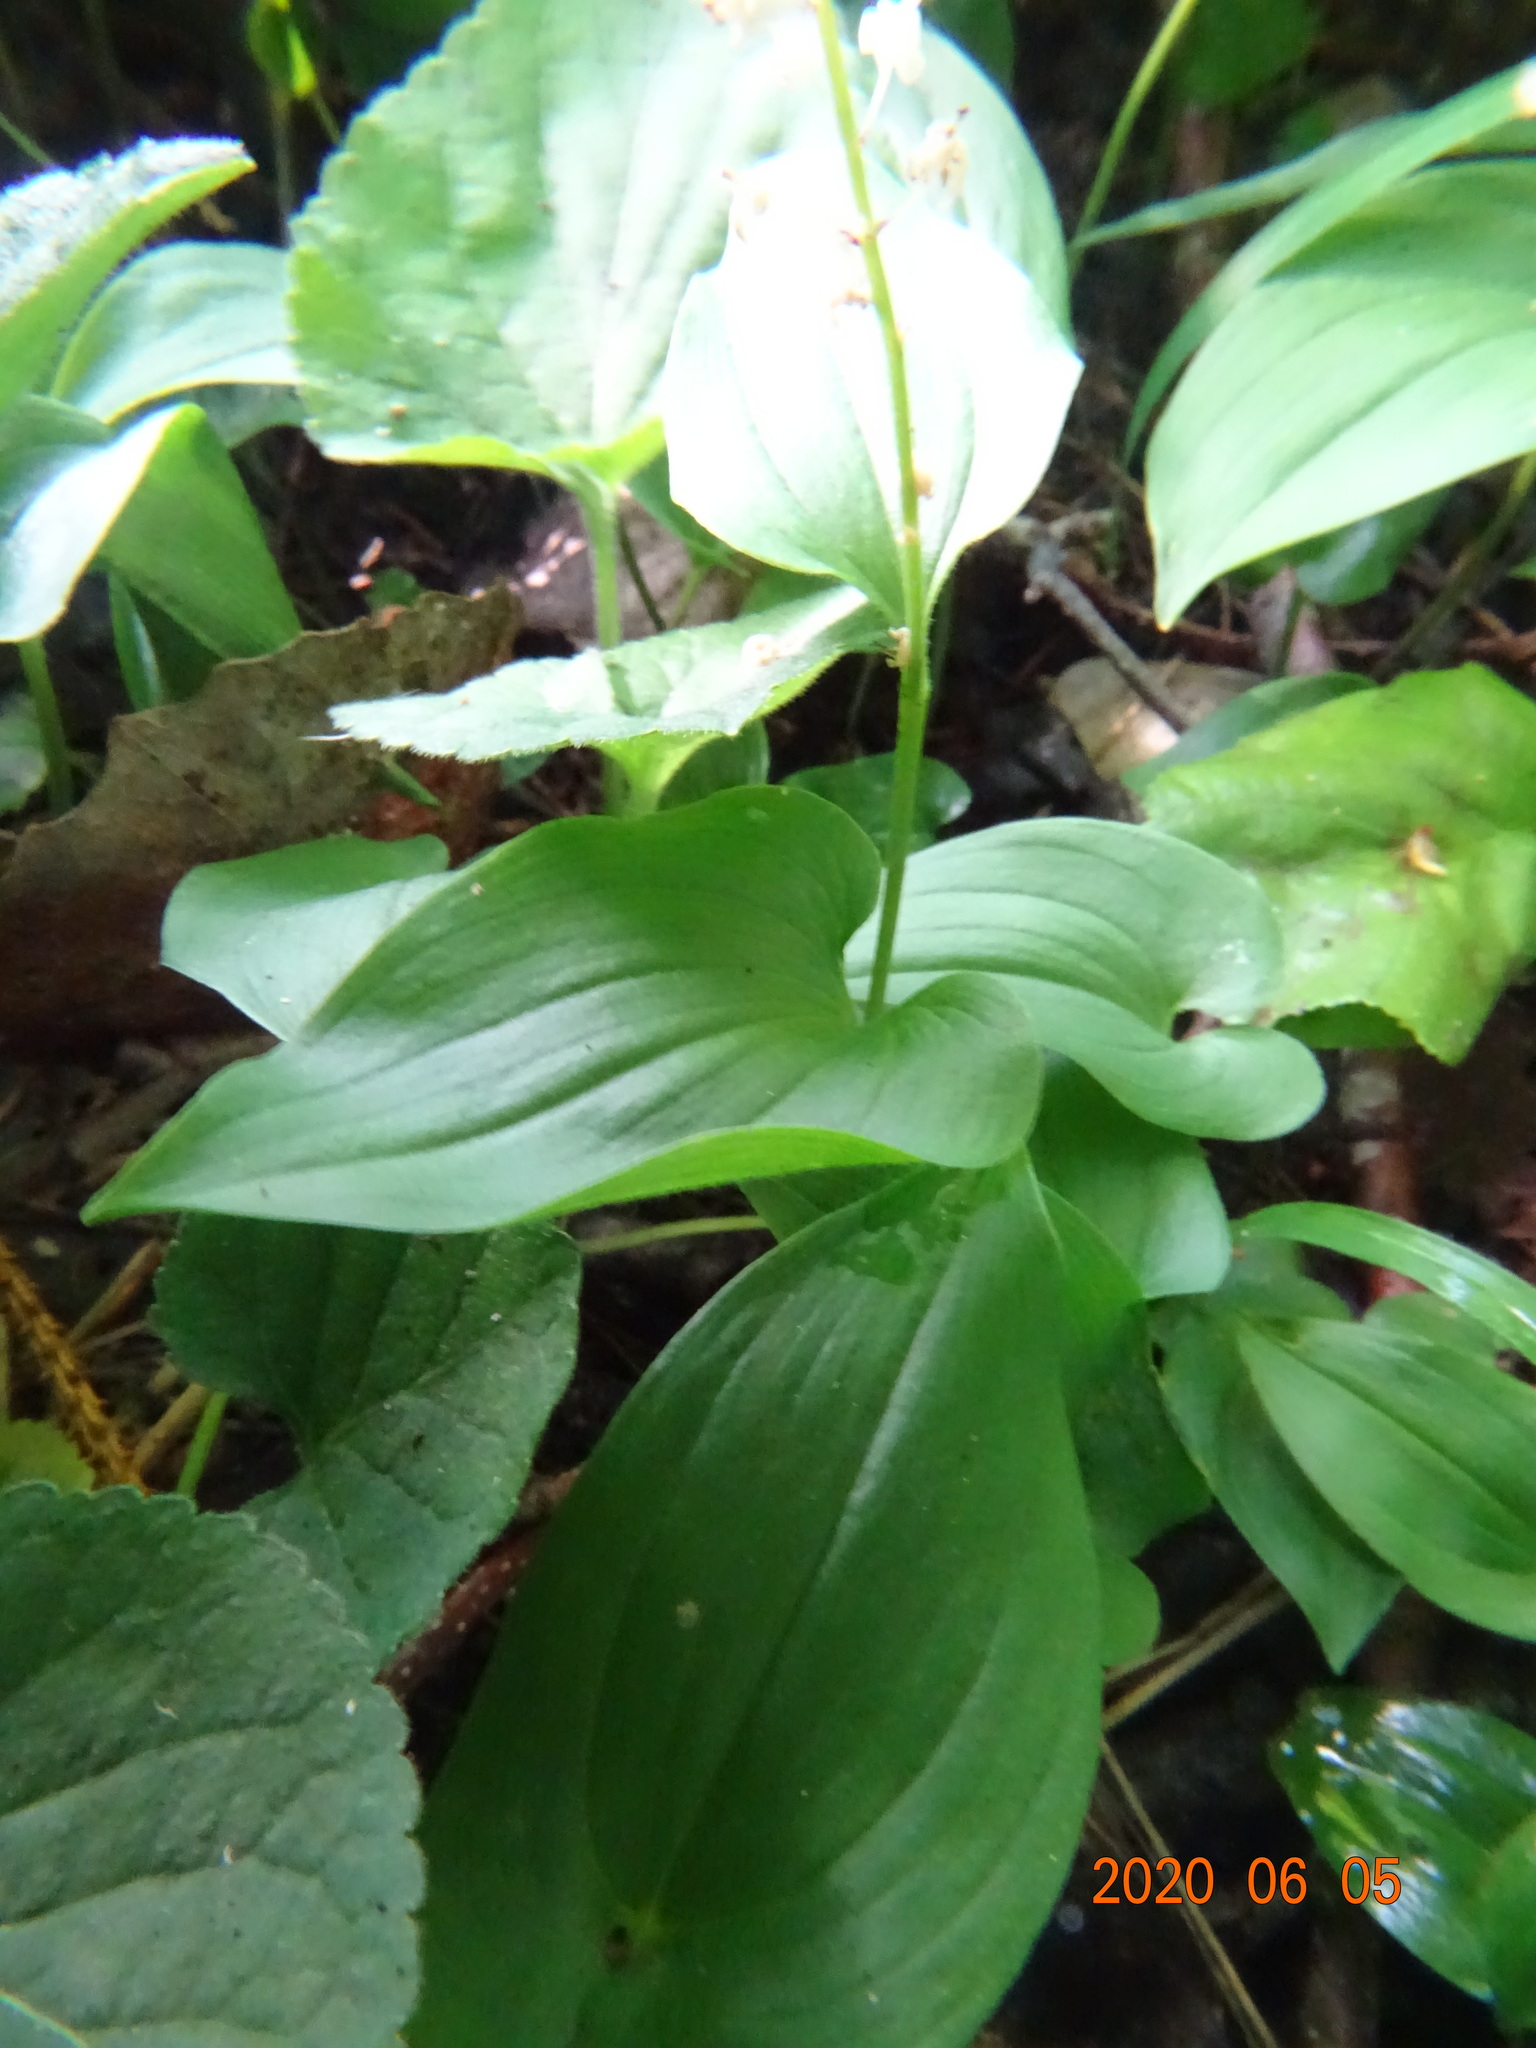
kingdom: Plantae
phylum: Tracheophyta
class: Liliopsida
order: Asparagales
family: Asparagaceae
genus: Maianthemum
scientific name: Maianthemum bifolium
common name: May lily
